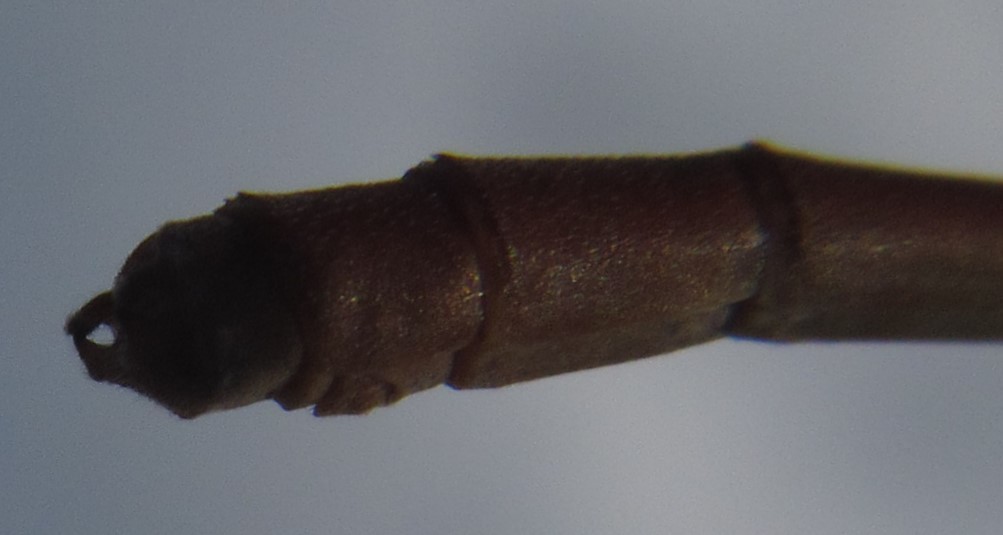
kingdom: Animalia
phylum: Arthropoda
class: Insecta
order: Odonata
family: Coenagrionidae
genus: Ceriagrion
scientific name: Ceriagrion suave
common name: Plain waxtail
